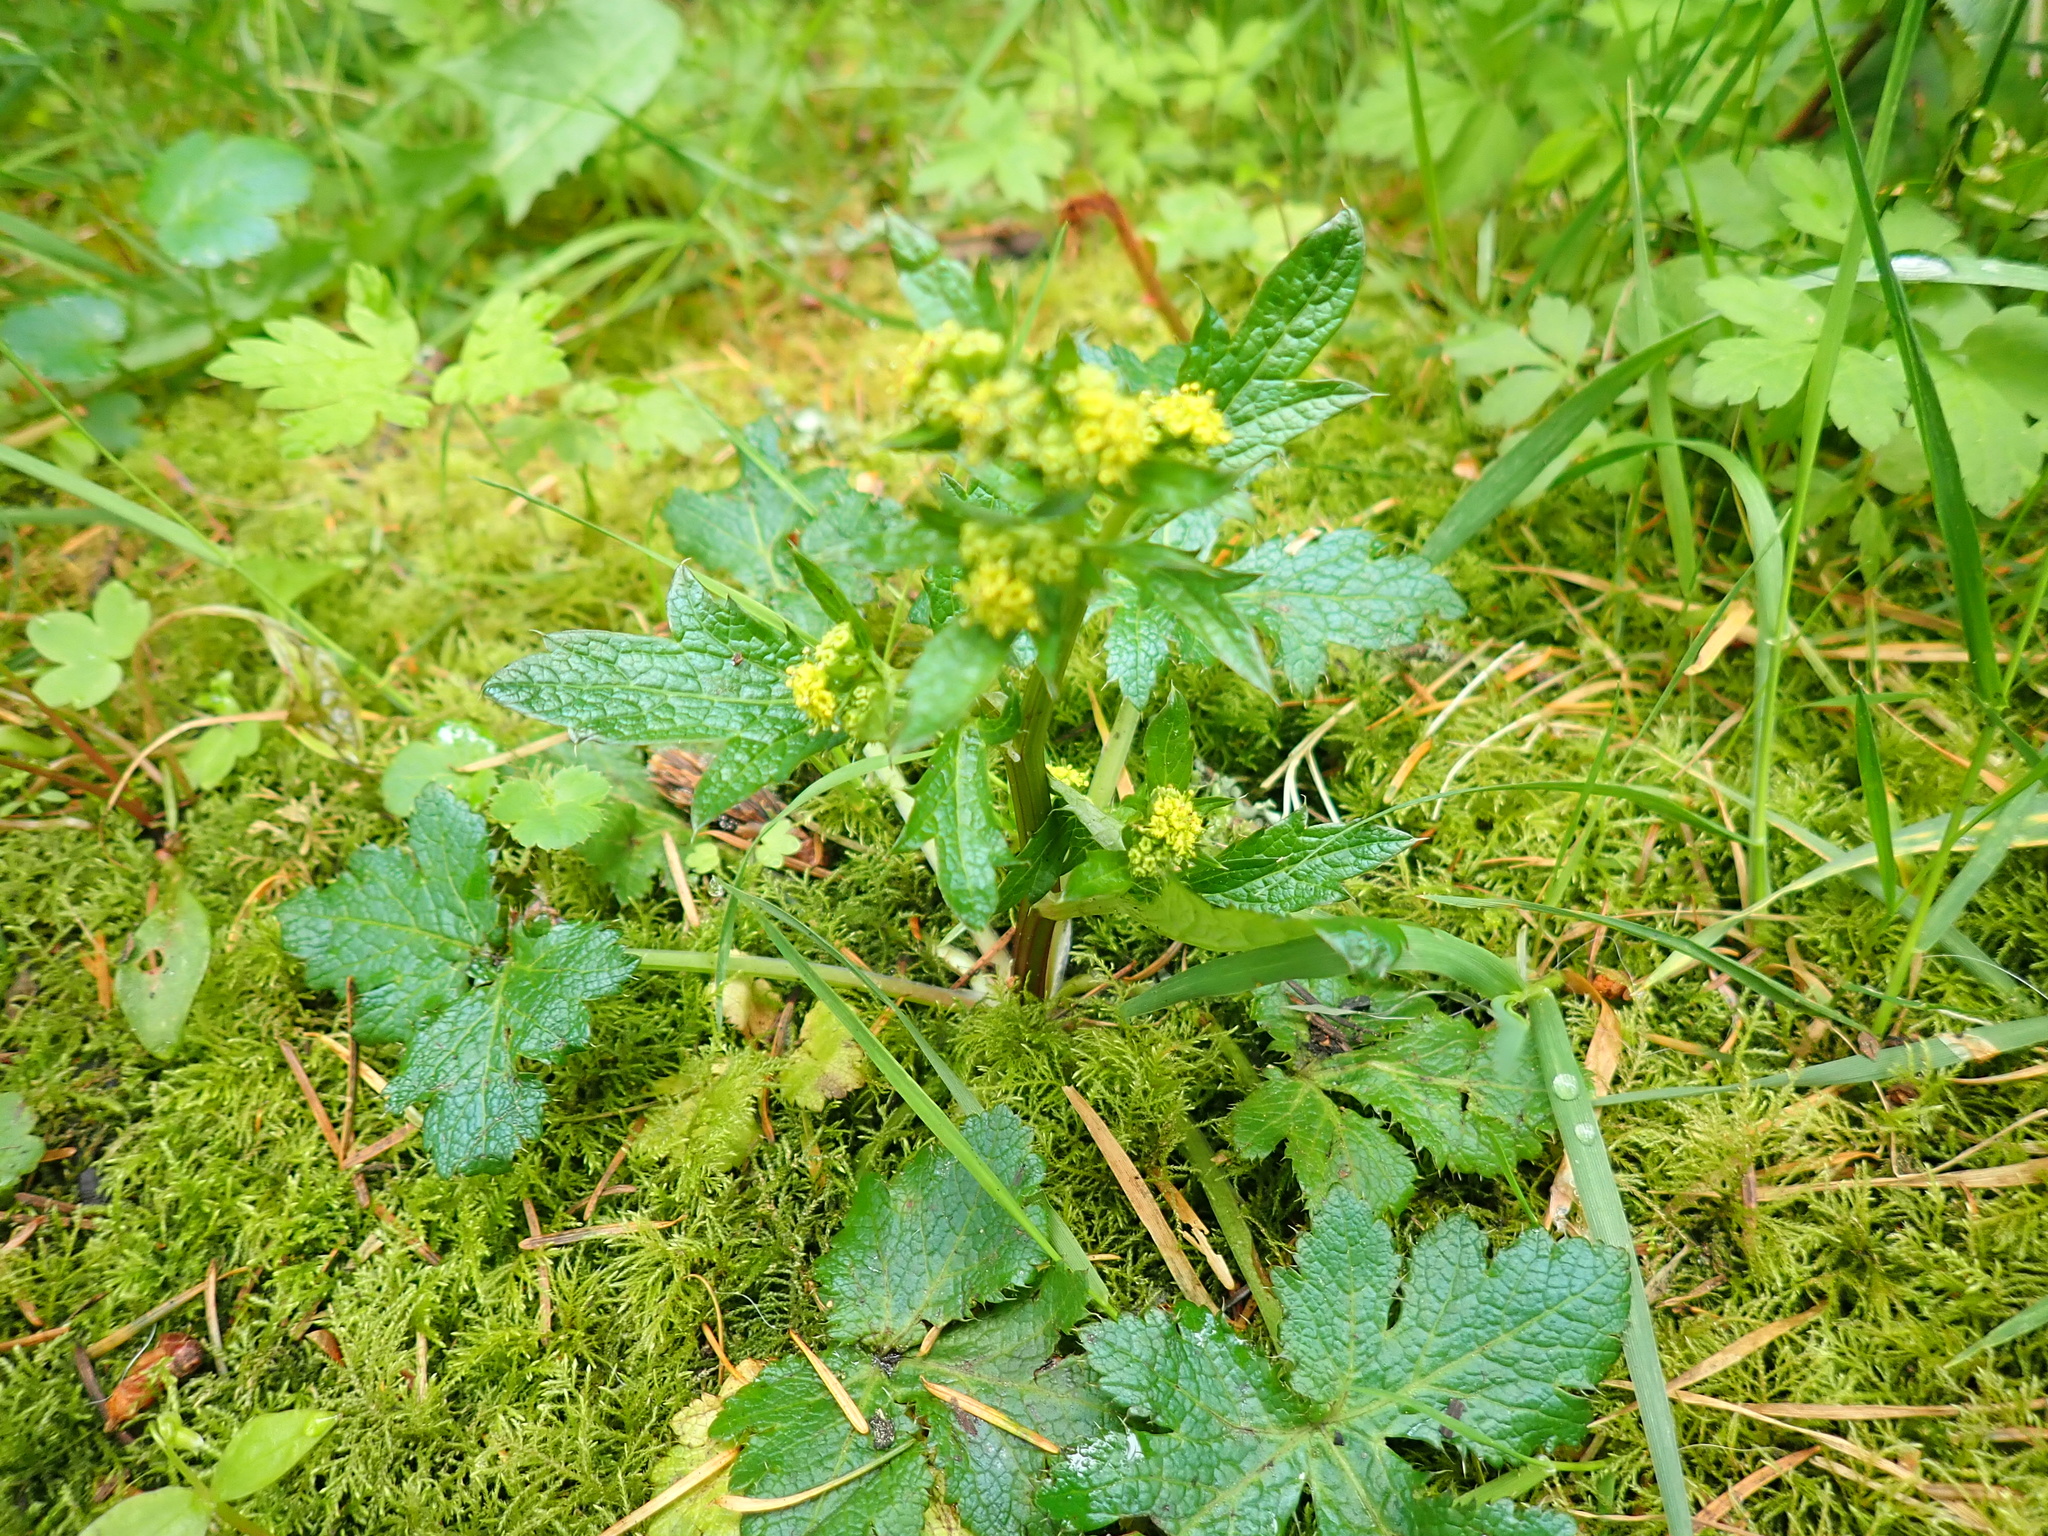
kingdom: Plantae
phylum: Tracheophyta
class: Magnoliopsida
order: Apiales
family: Apiaceae
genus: Sanicula
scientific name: Sanicula crassicaulis
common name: Western snakeroot
